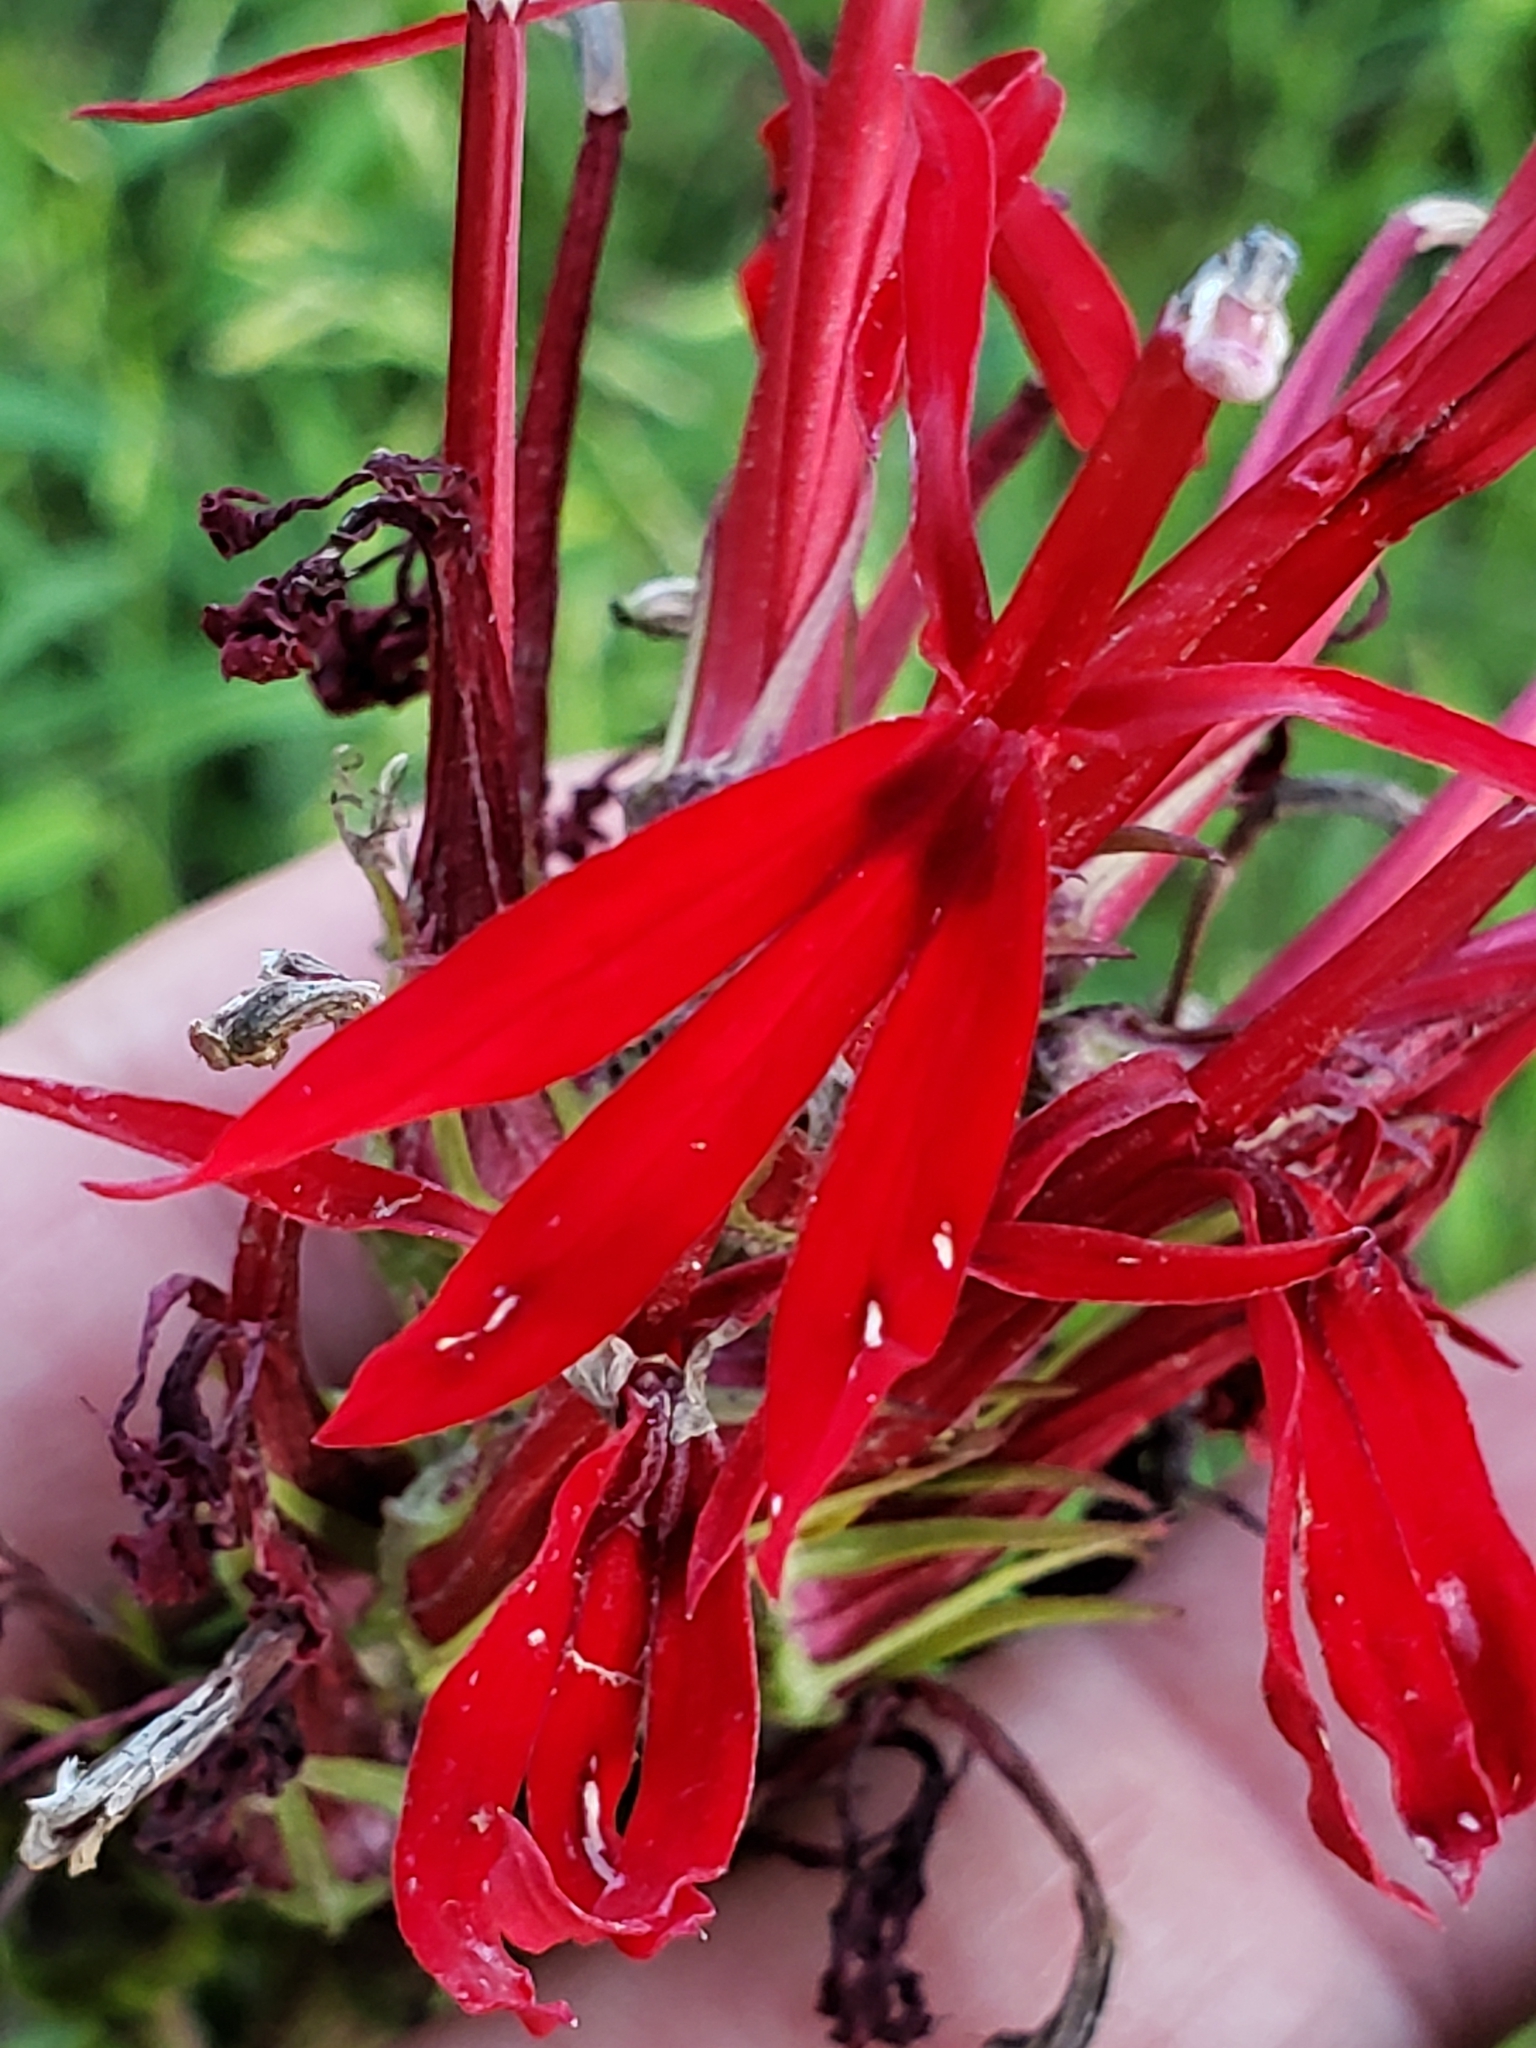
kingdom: Plantae
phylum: Tracheophyta
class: Magnoliopsida
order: Asterales
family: Campanulaceae
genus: Lobelia
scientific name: Lobelia cardinalis
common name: Cardinal flower
